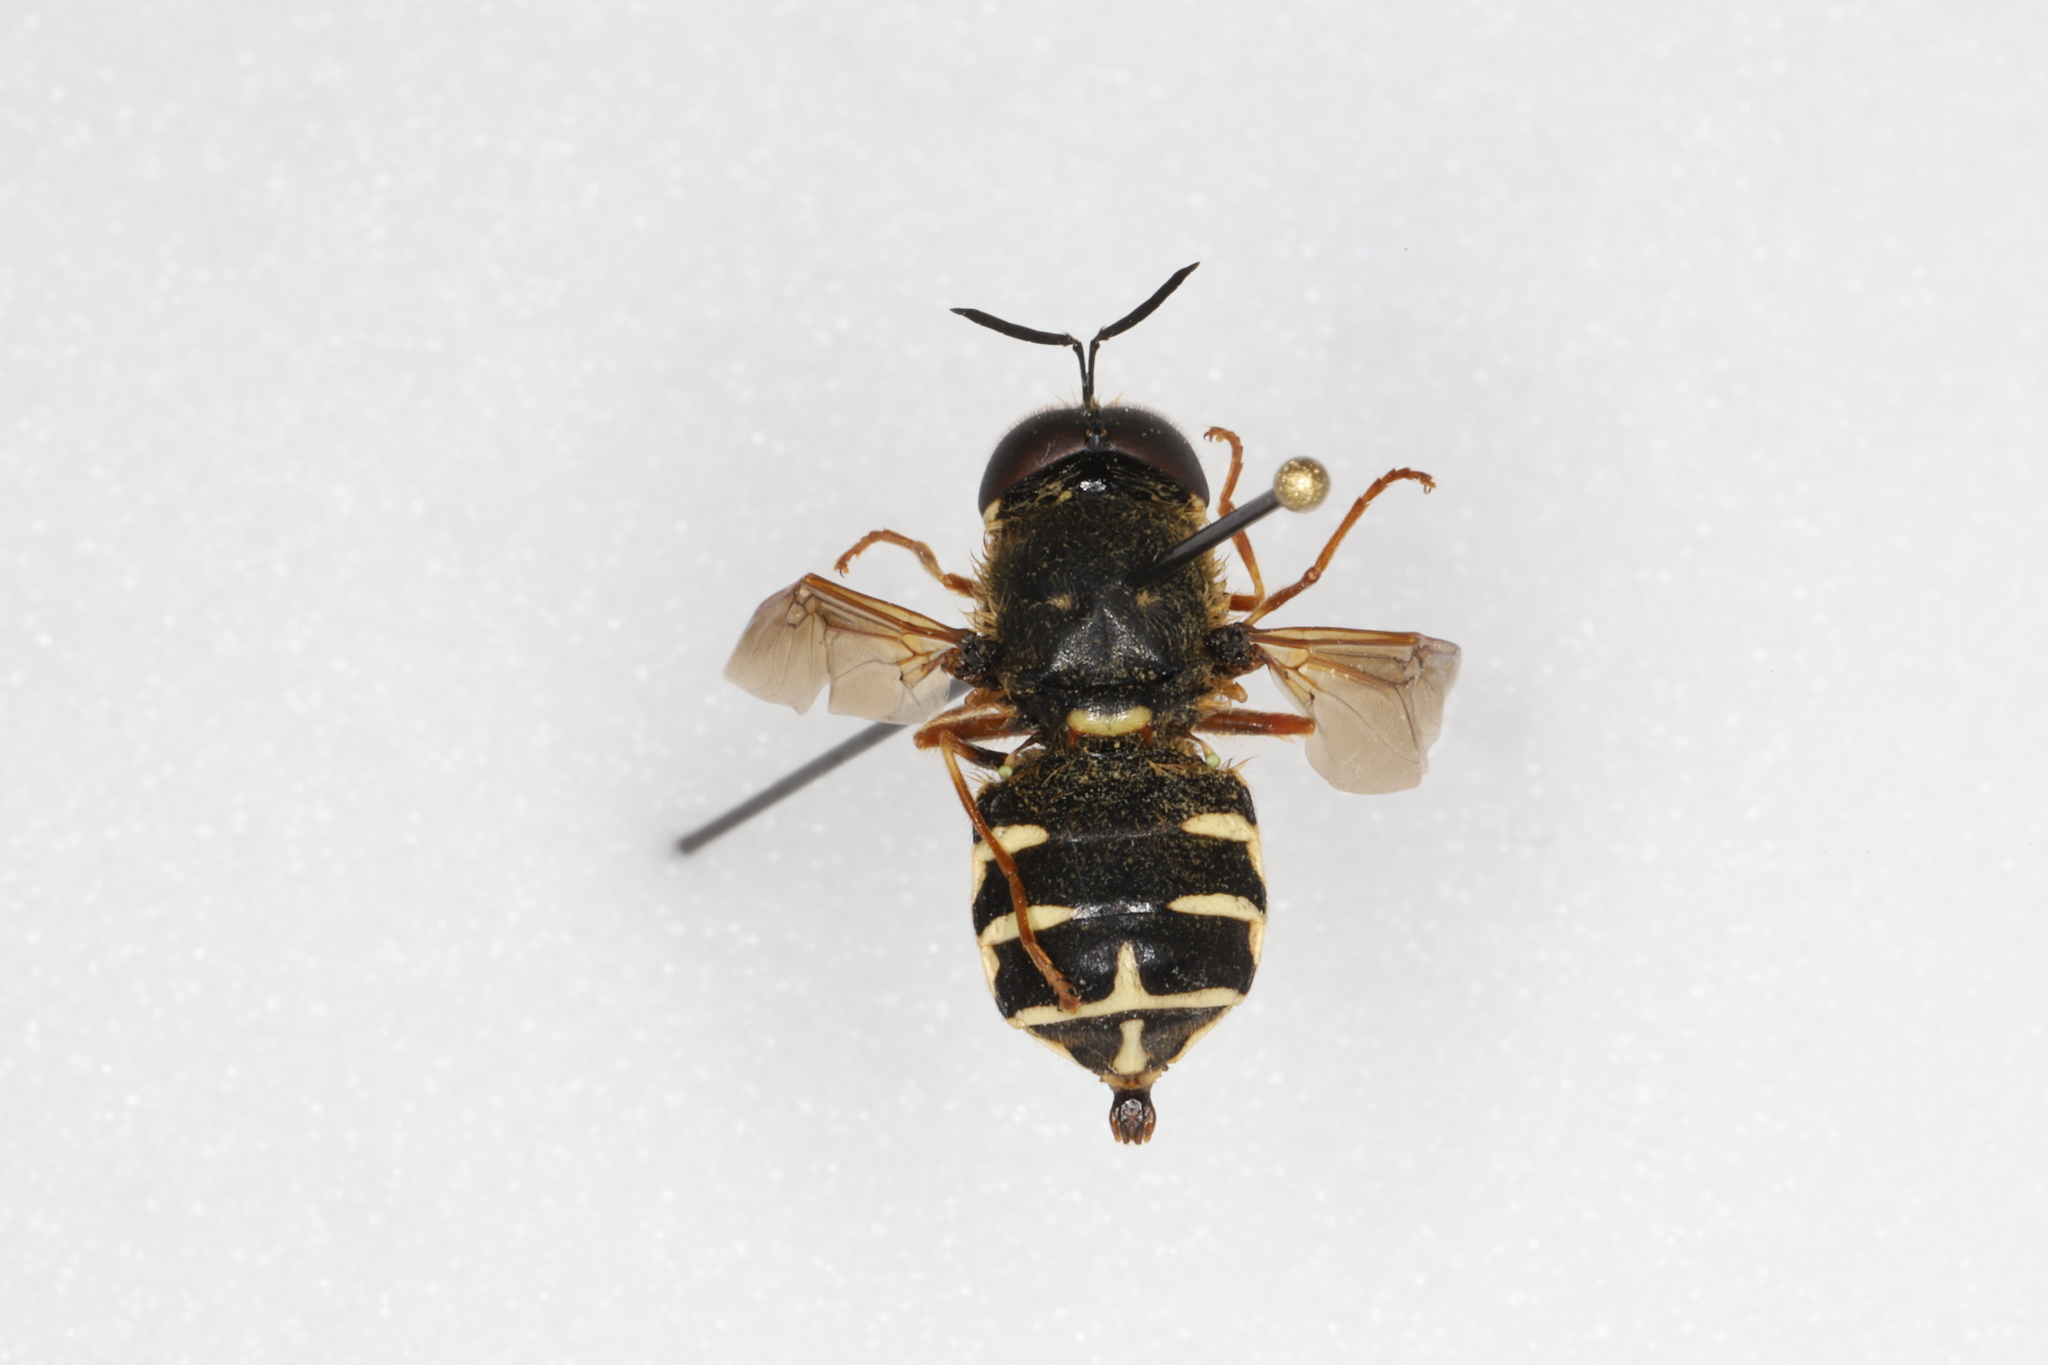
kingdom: Animalia
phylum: Arthropoda
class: Insecta
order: Diptera
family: Stratiomyidae
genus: Stratiomys
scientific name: Stratiomys badia
